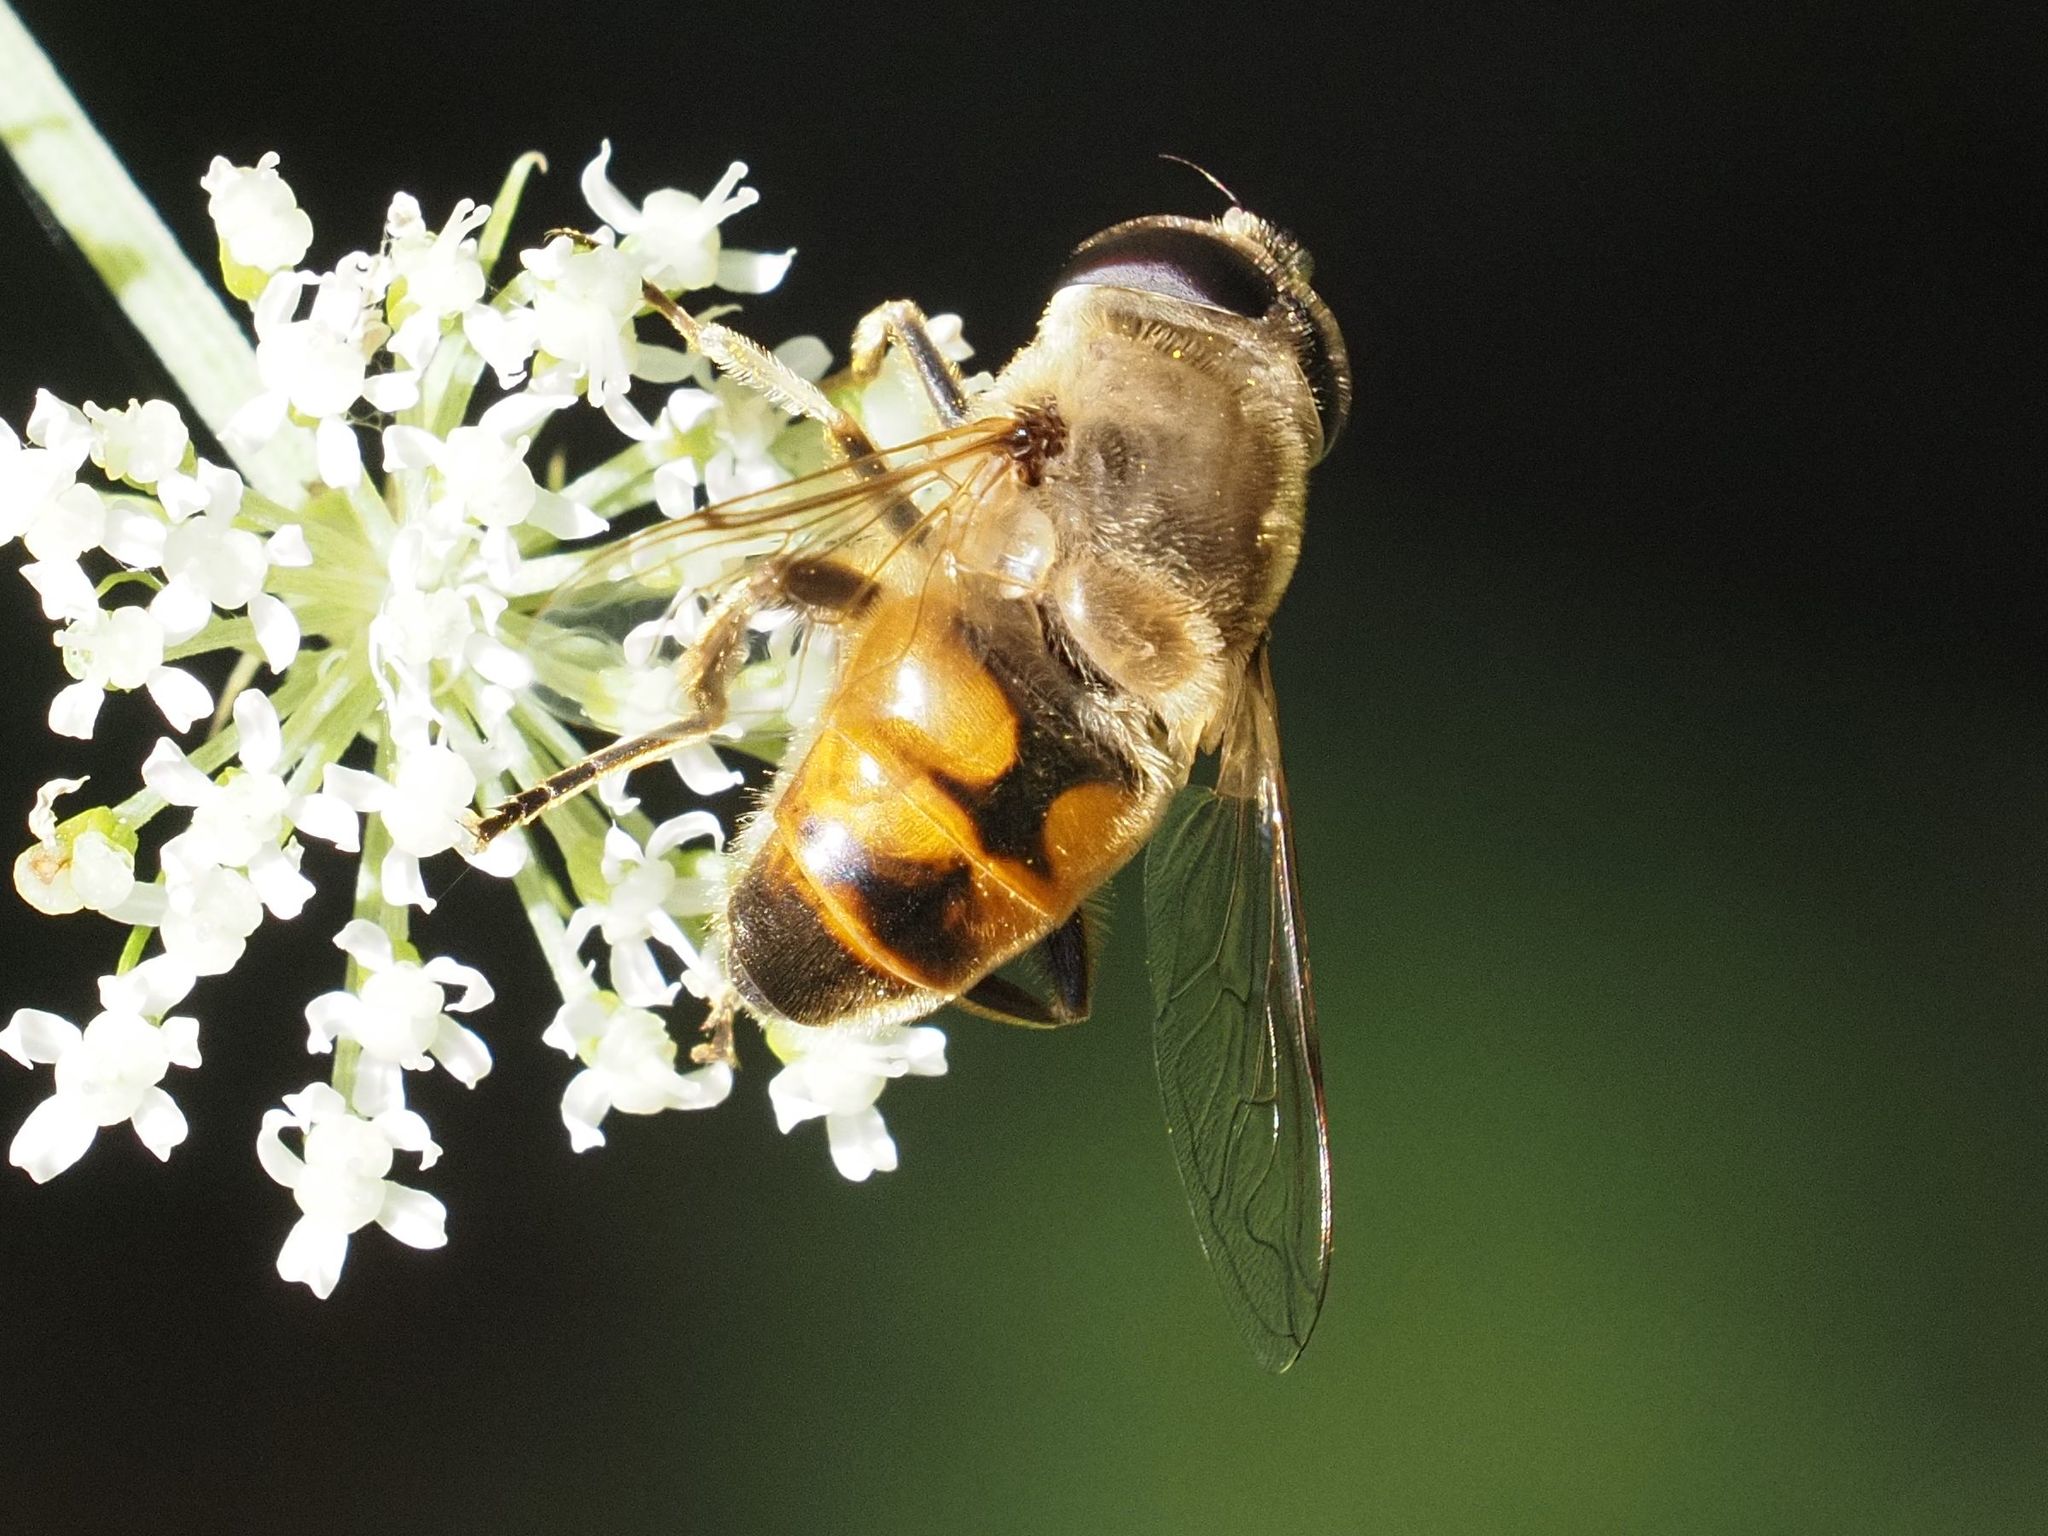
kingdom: Animalia
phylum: Arthropoda
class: Insecta
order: Diptera
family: Syrphidae
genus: Eristalis
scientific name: Eristalis tenax
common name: Drone fly
